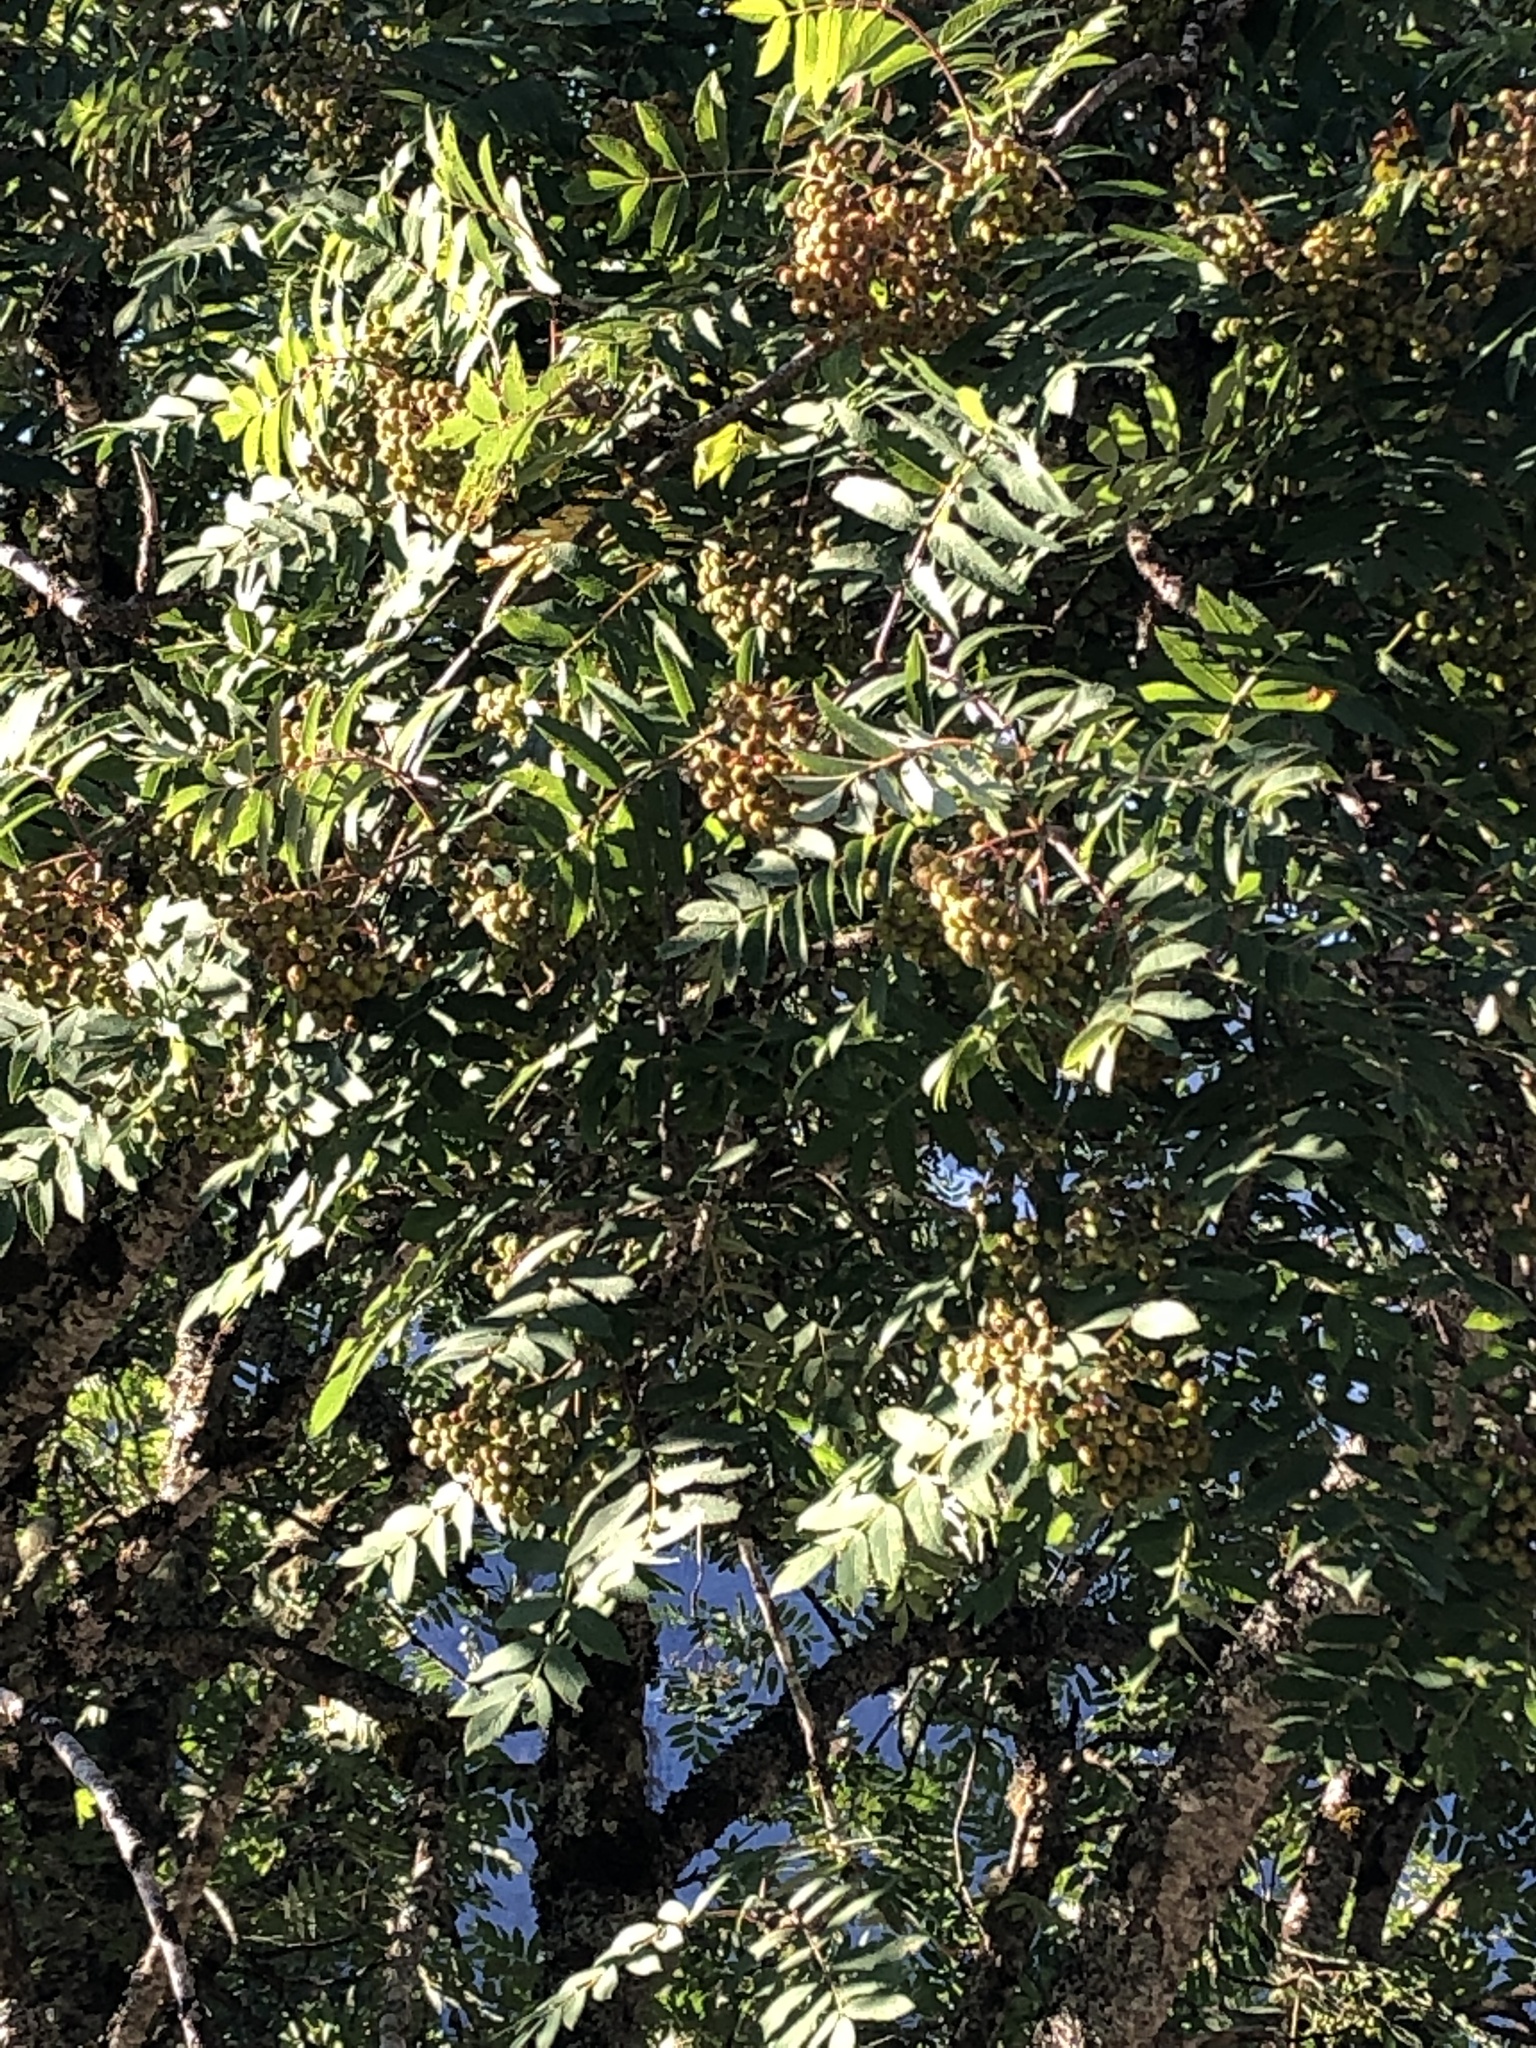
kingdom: Plantae
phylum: Tracheophyta
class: Magnoliopsida
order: Rosales
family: Rosaceae
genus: Sorbus
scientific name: Sorbus aucuparia
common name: Rowan
